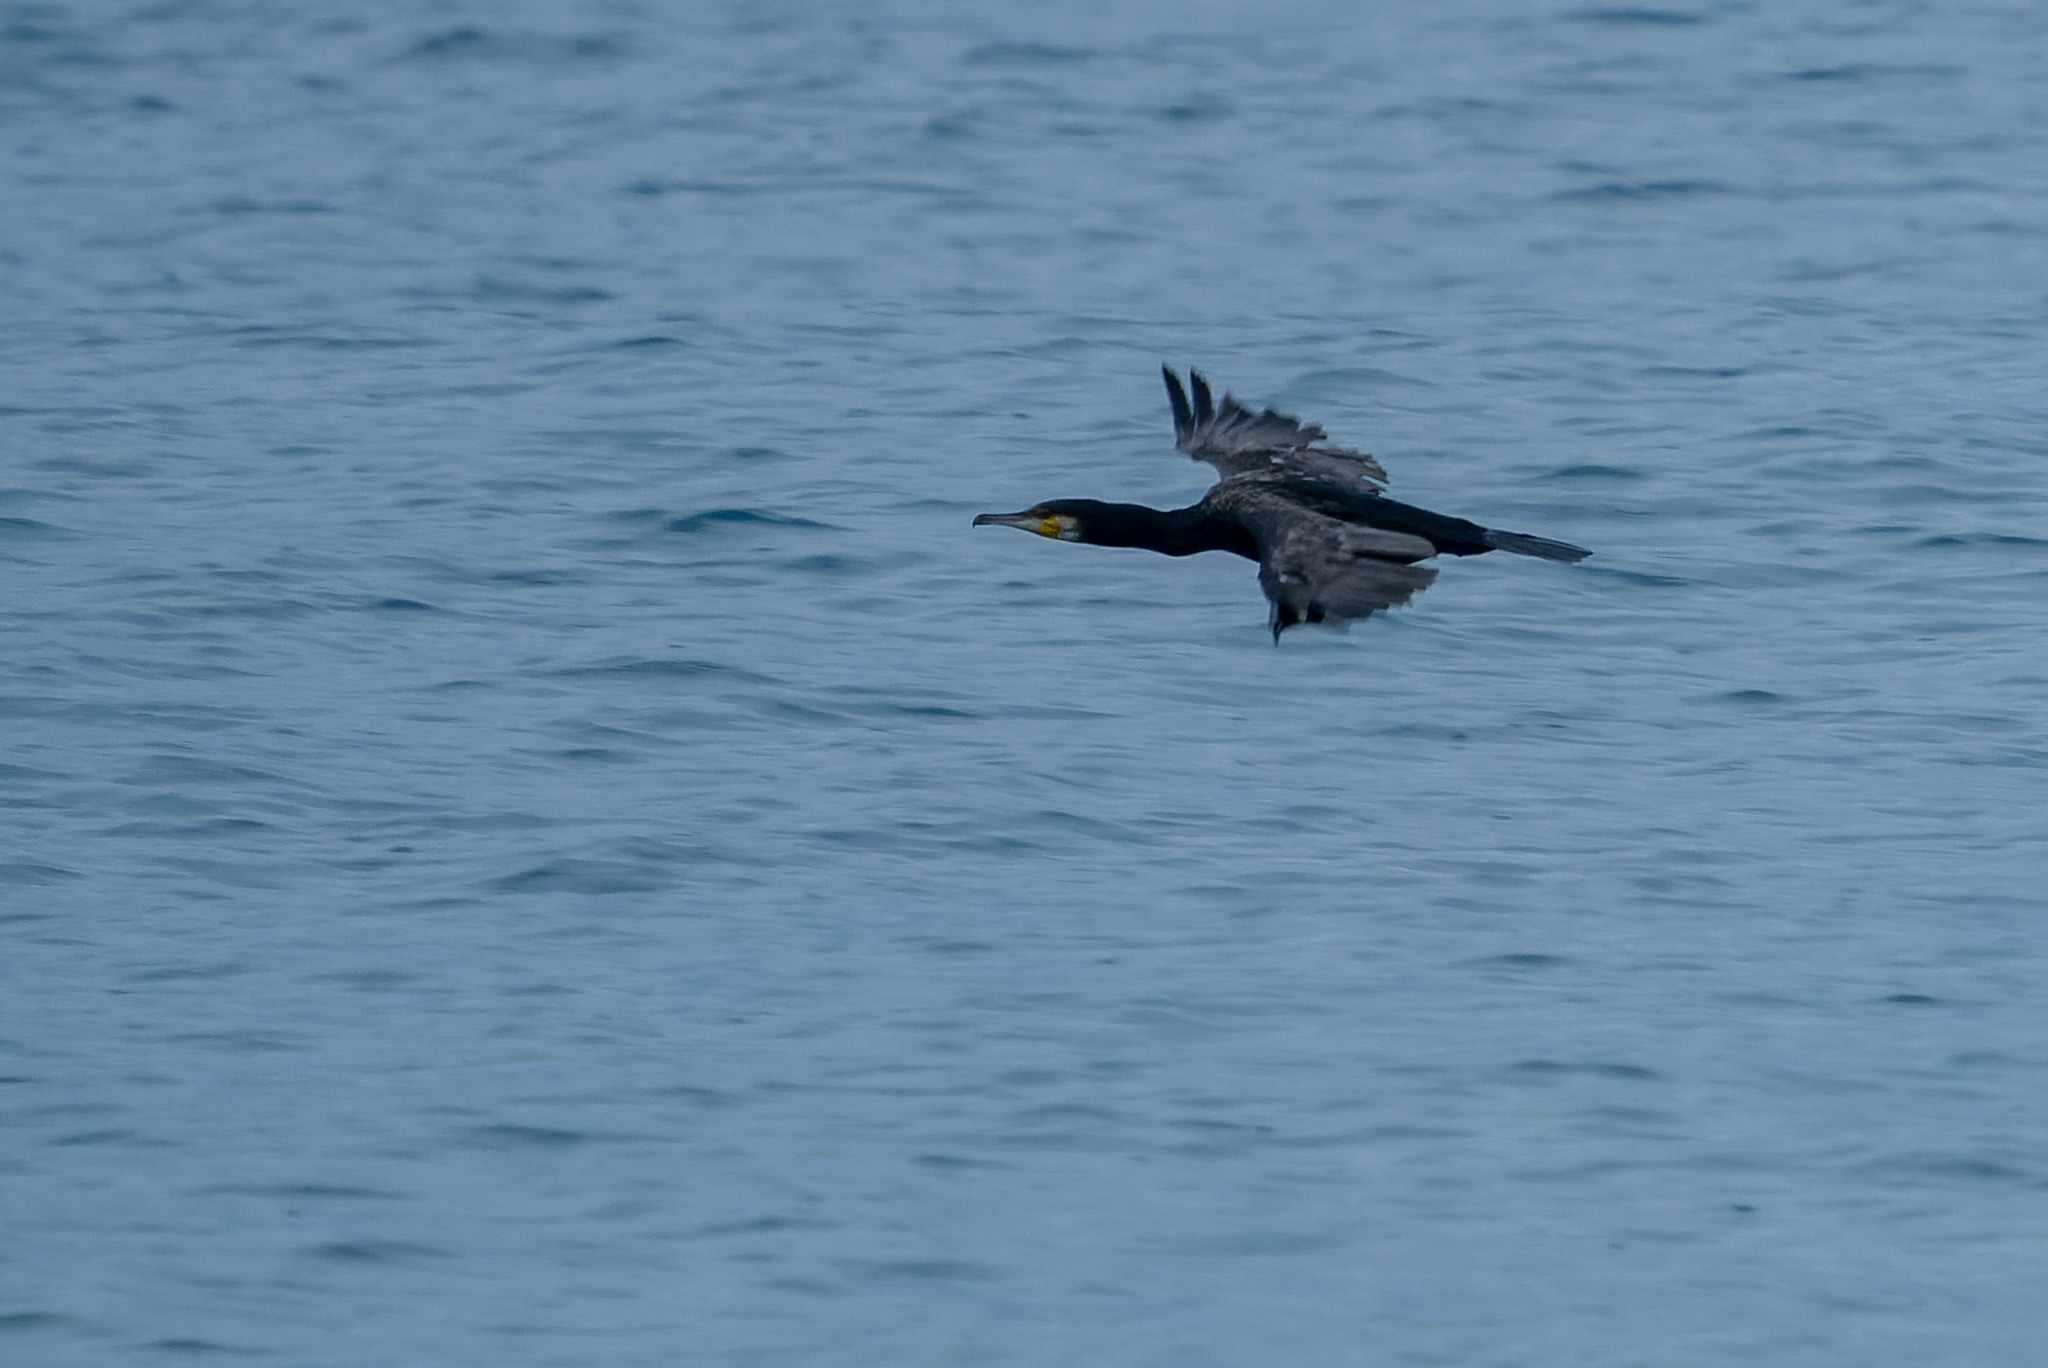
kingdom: Animalia
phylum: Chordata
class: Aves
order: Suliformes
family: Phalacrocoracidae
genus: Phalacrocorax
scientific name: Phalacrocorax carbo
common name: Great cormorant
